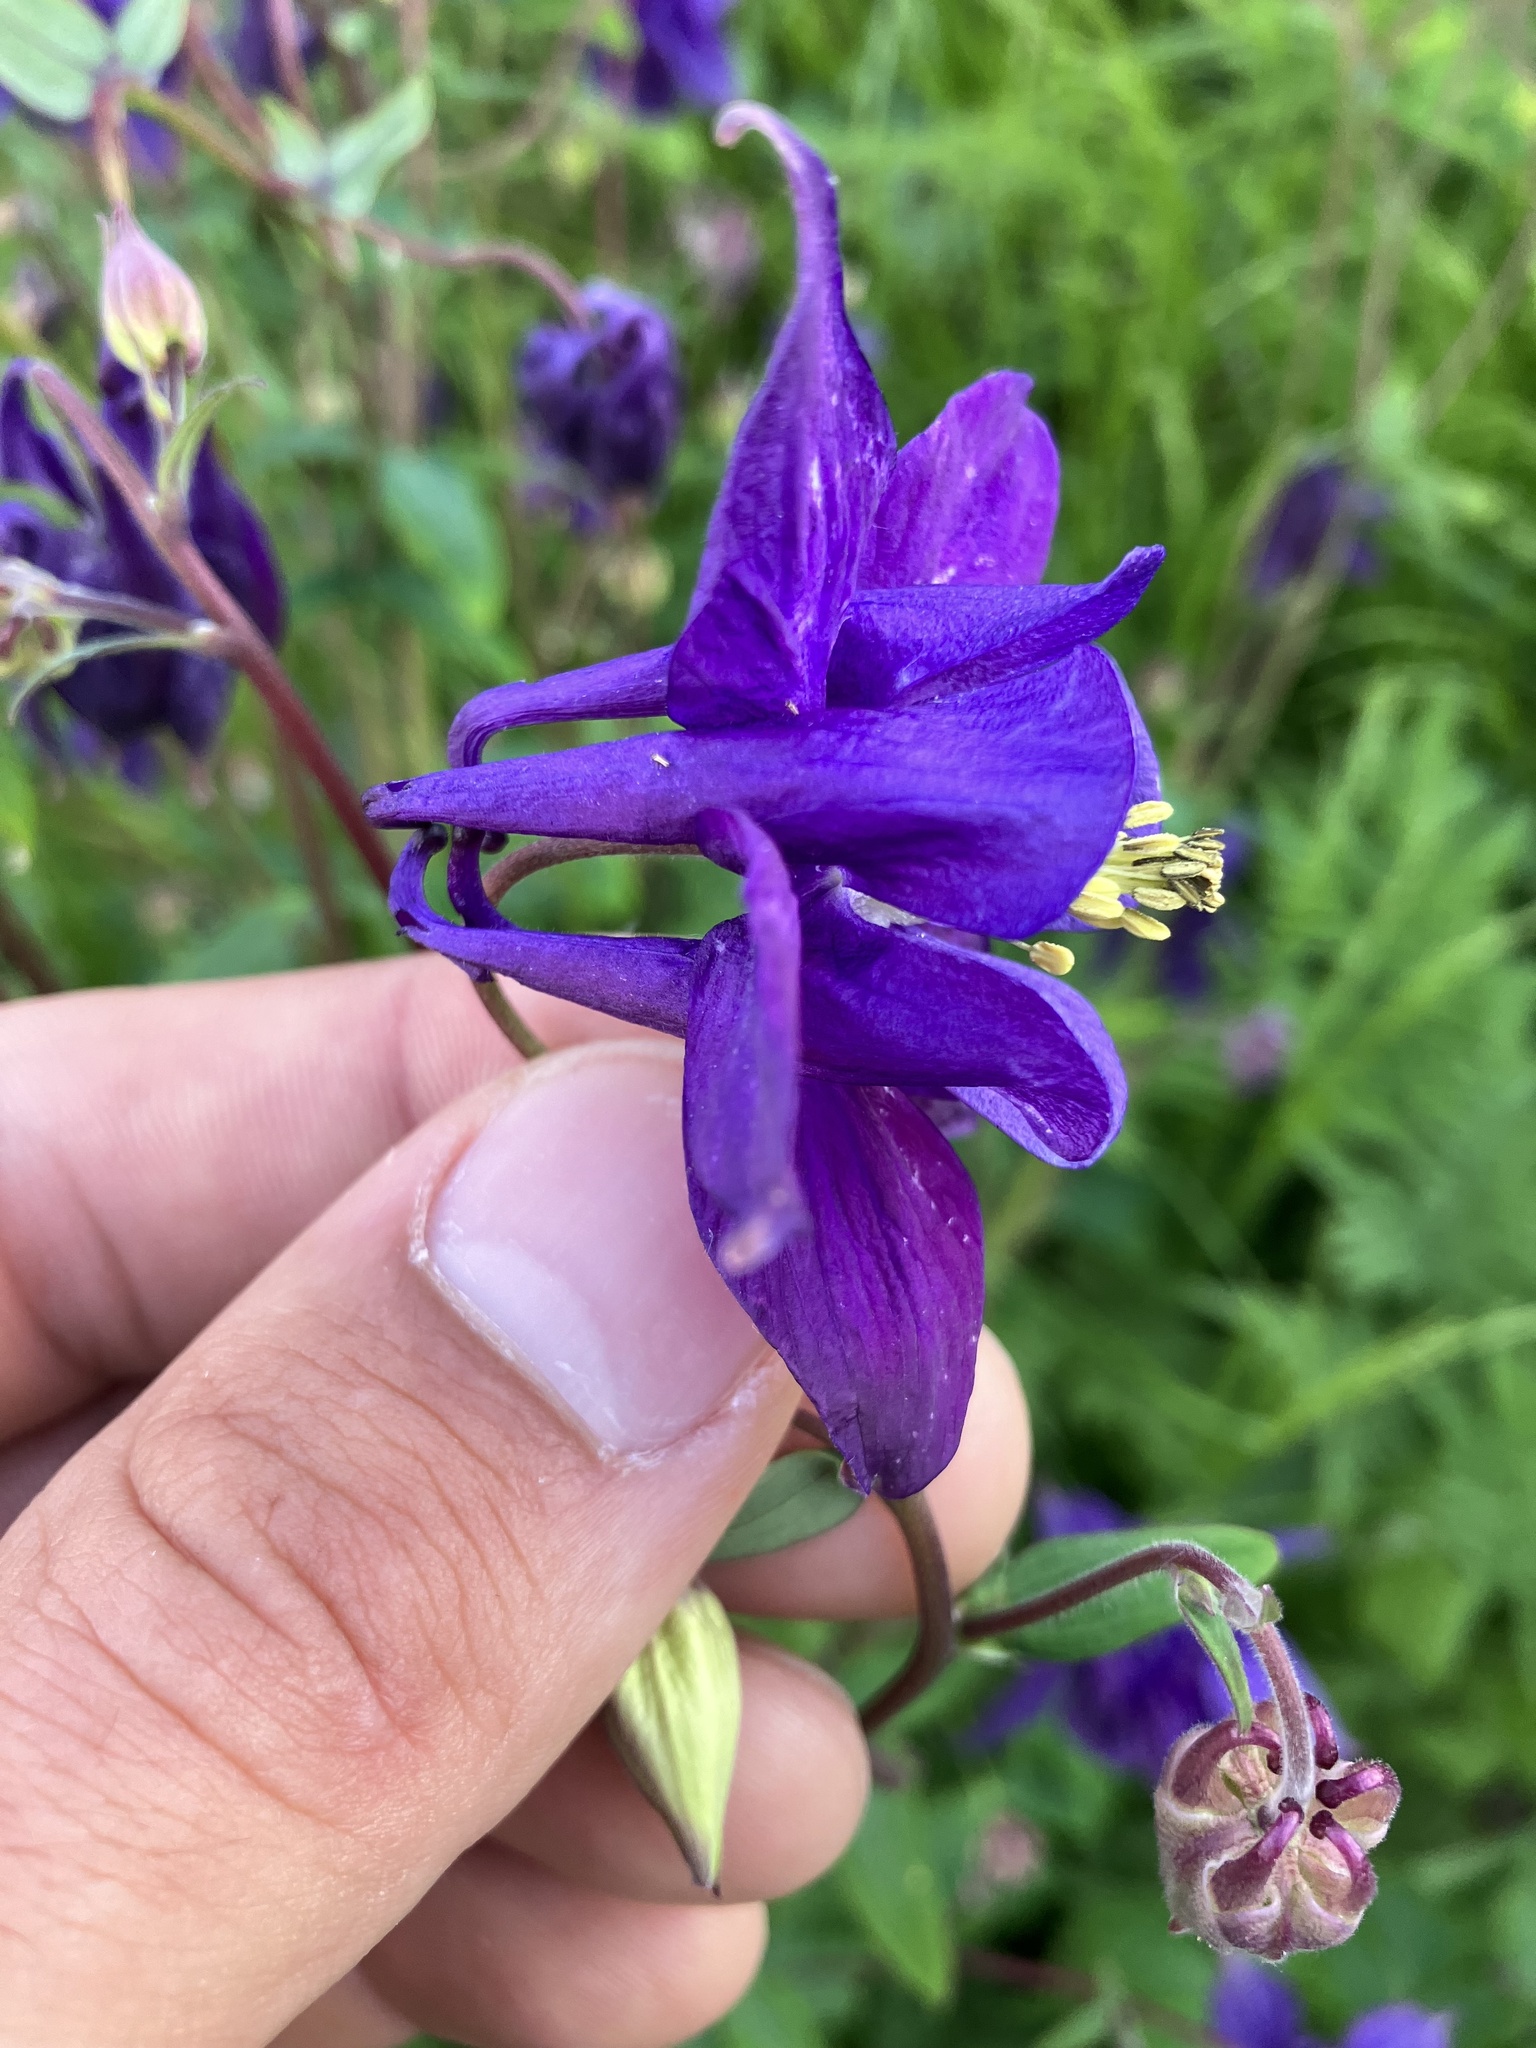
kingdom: Plantae
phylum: Tracheophyta
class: Magnoliopsida
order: Ranunculales
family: Ranunculaceae
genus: Aquilegia
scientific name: Aquilegia atrata
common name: Dark columbine
